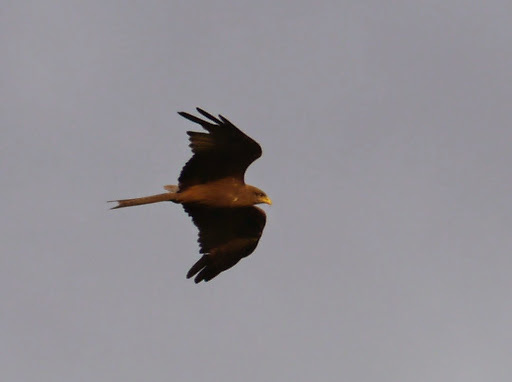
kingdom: Animalia
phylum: Chordata
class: Aves
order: Accipitriformes
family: Accipitridae
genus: Milvus
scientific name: Milvus migrans
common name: Black kite
